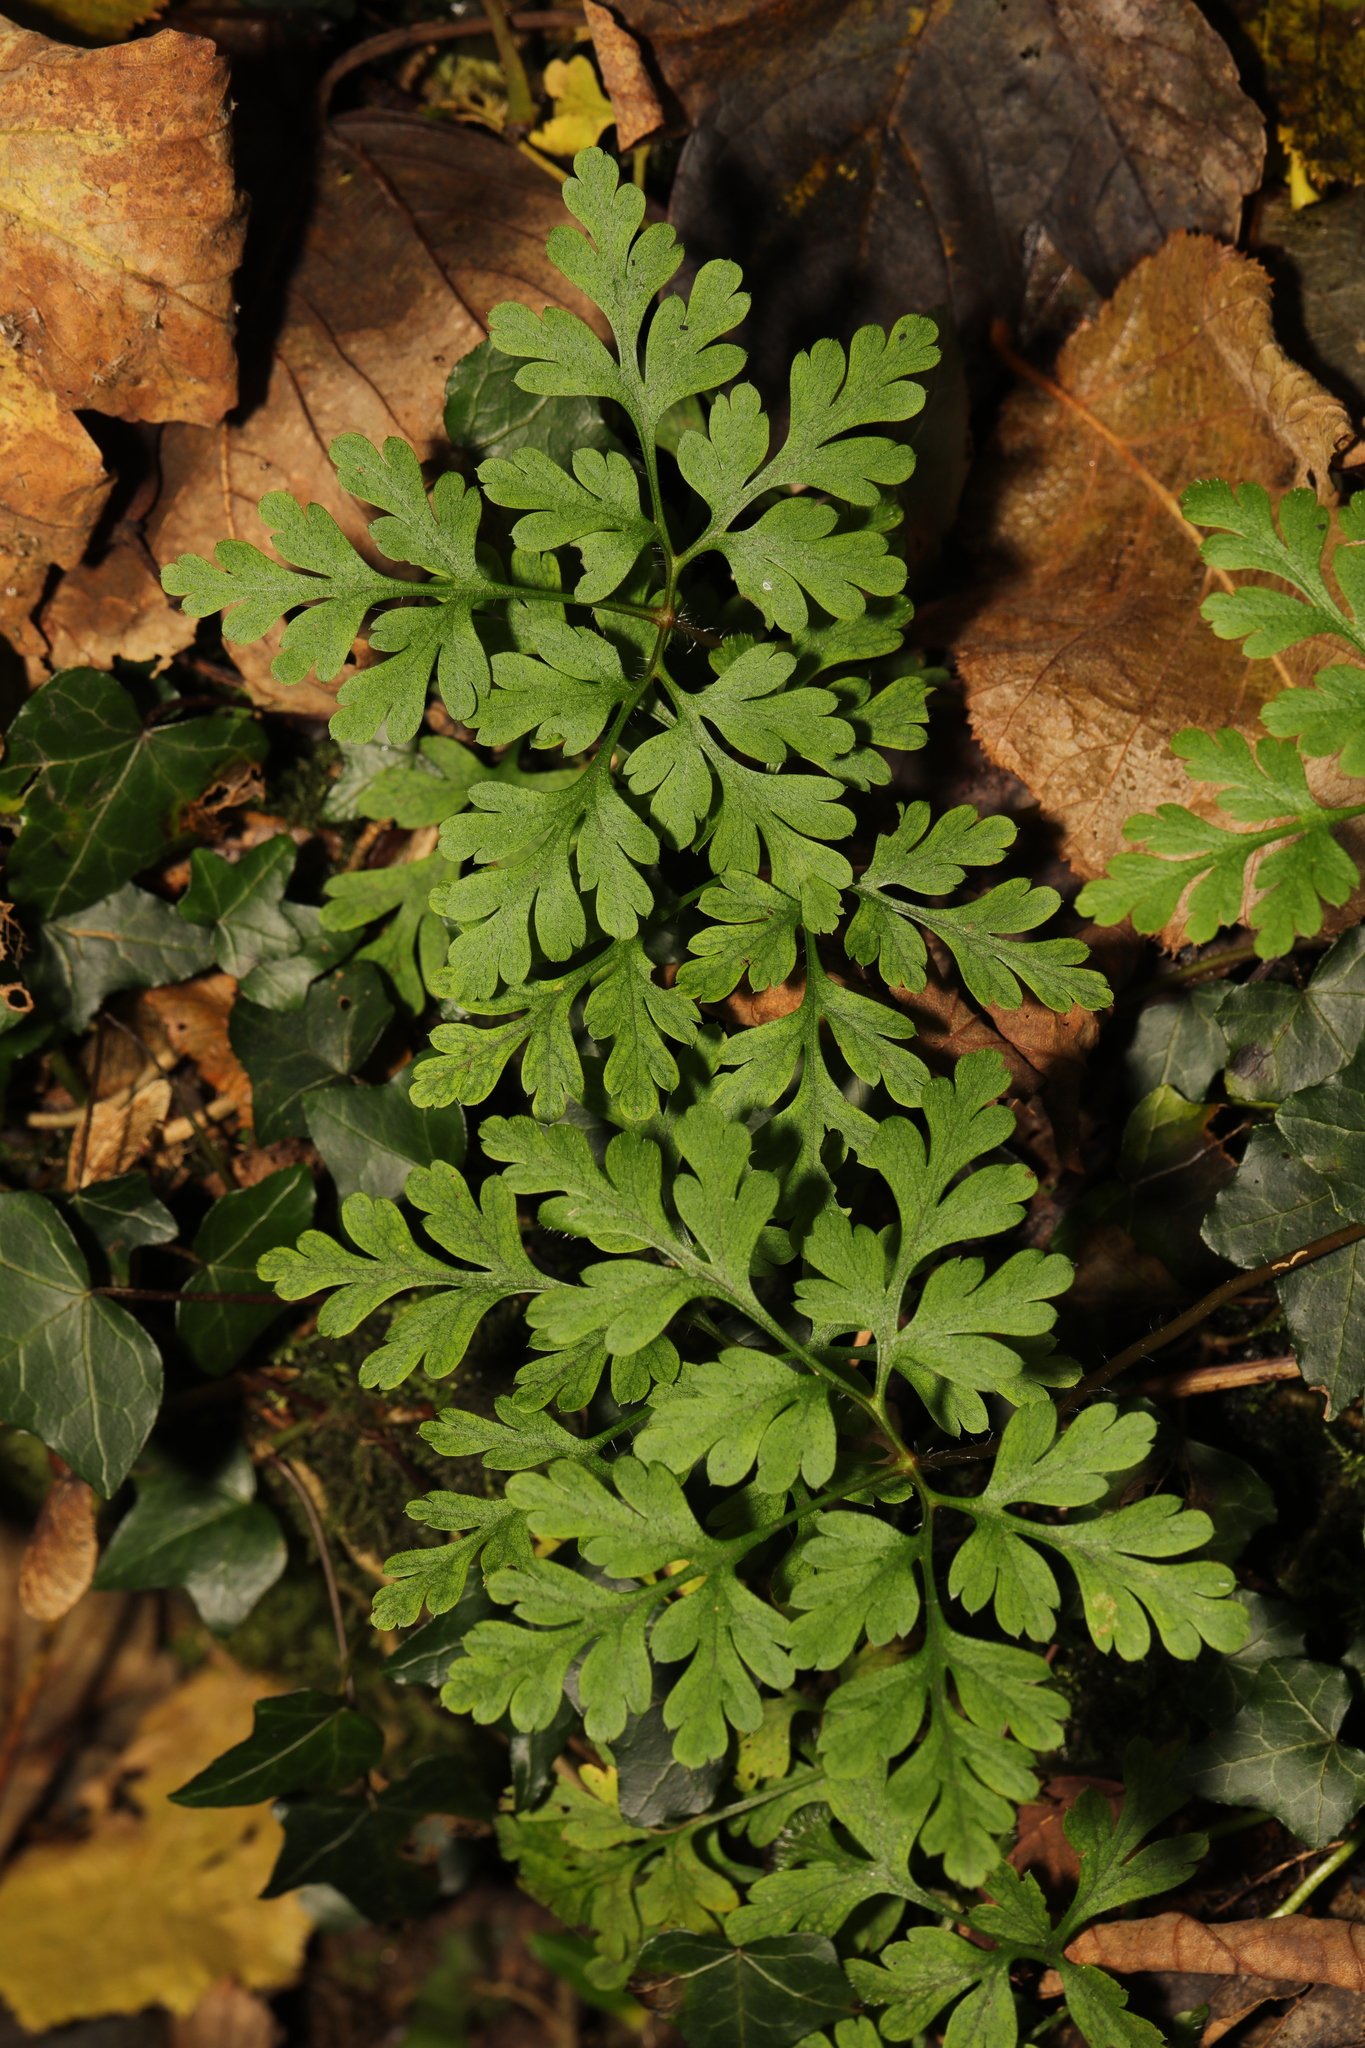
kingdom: Plantae
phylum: Tracheophyta
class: Magnoliopsida
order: Geraniales
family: Geraniaceae
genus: Geranium
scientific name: Geranium robertianum
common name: Herb-robert
